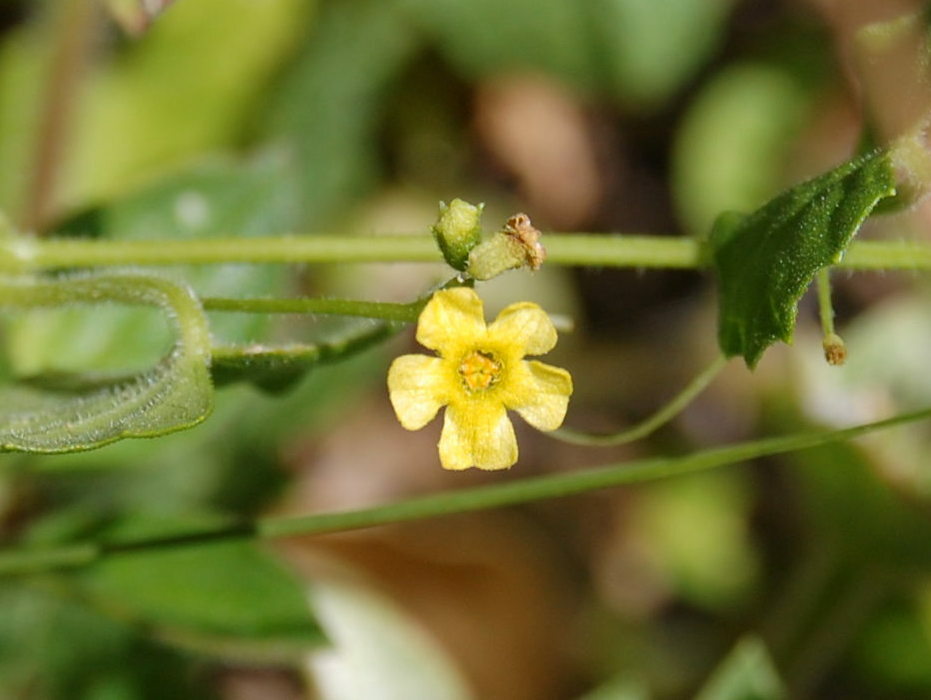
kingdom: Plantae
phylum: Tracheophyta
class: Magnoliopsida
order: Cucurbitales
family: Cucurbitaceae
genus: Melothria
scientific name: Melothria pendula
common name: Creeping-cucumber
